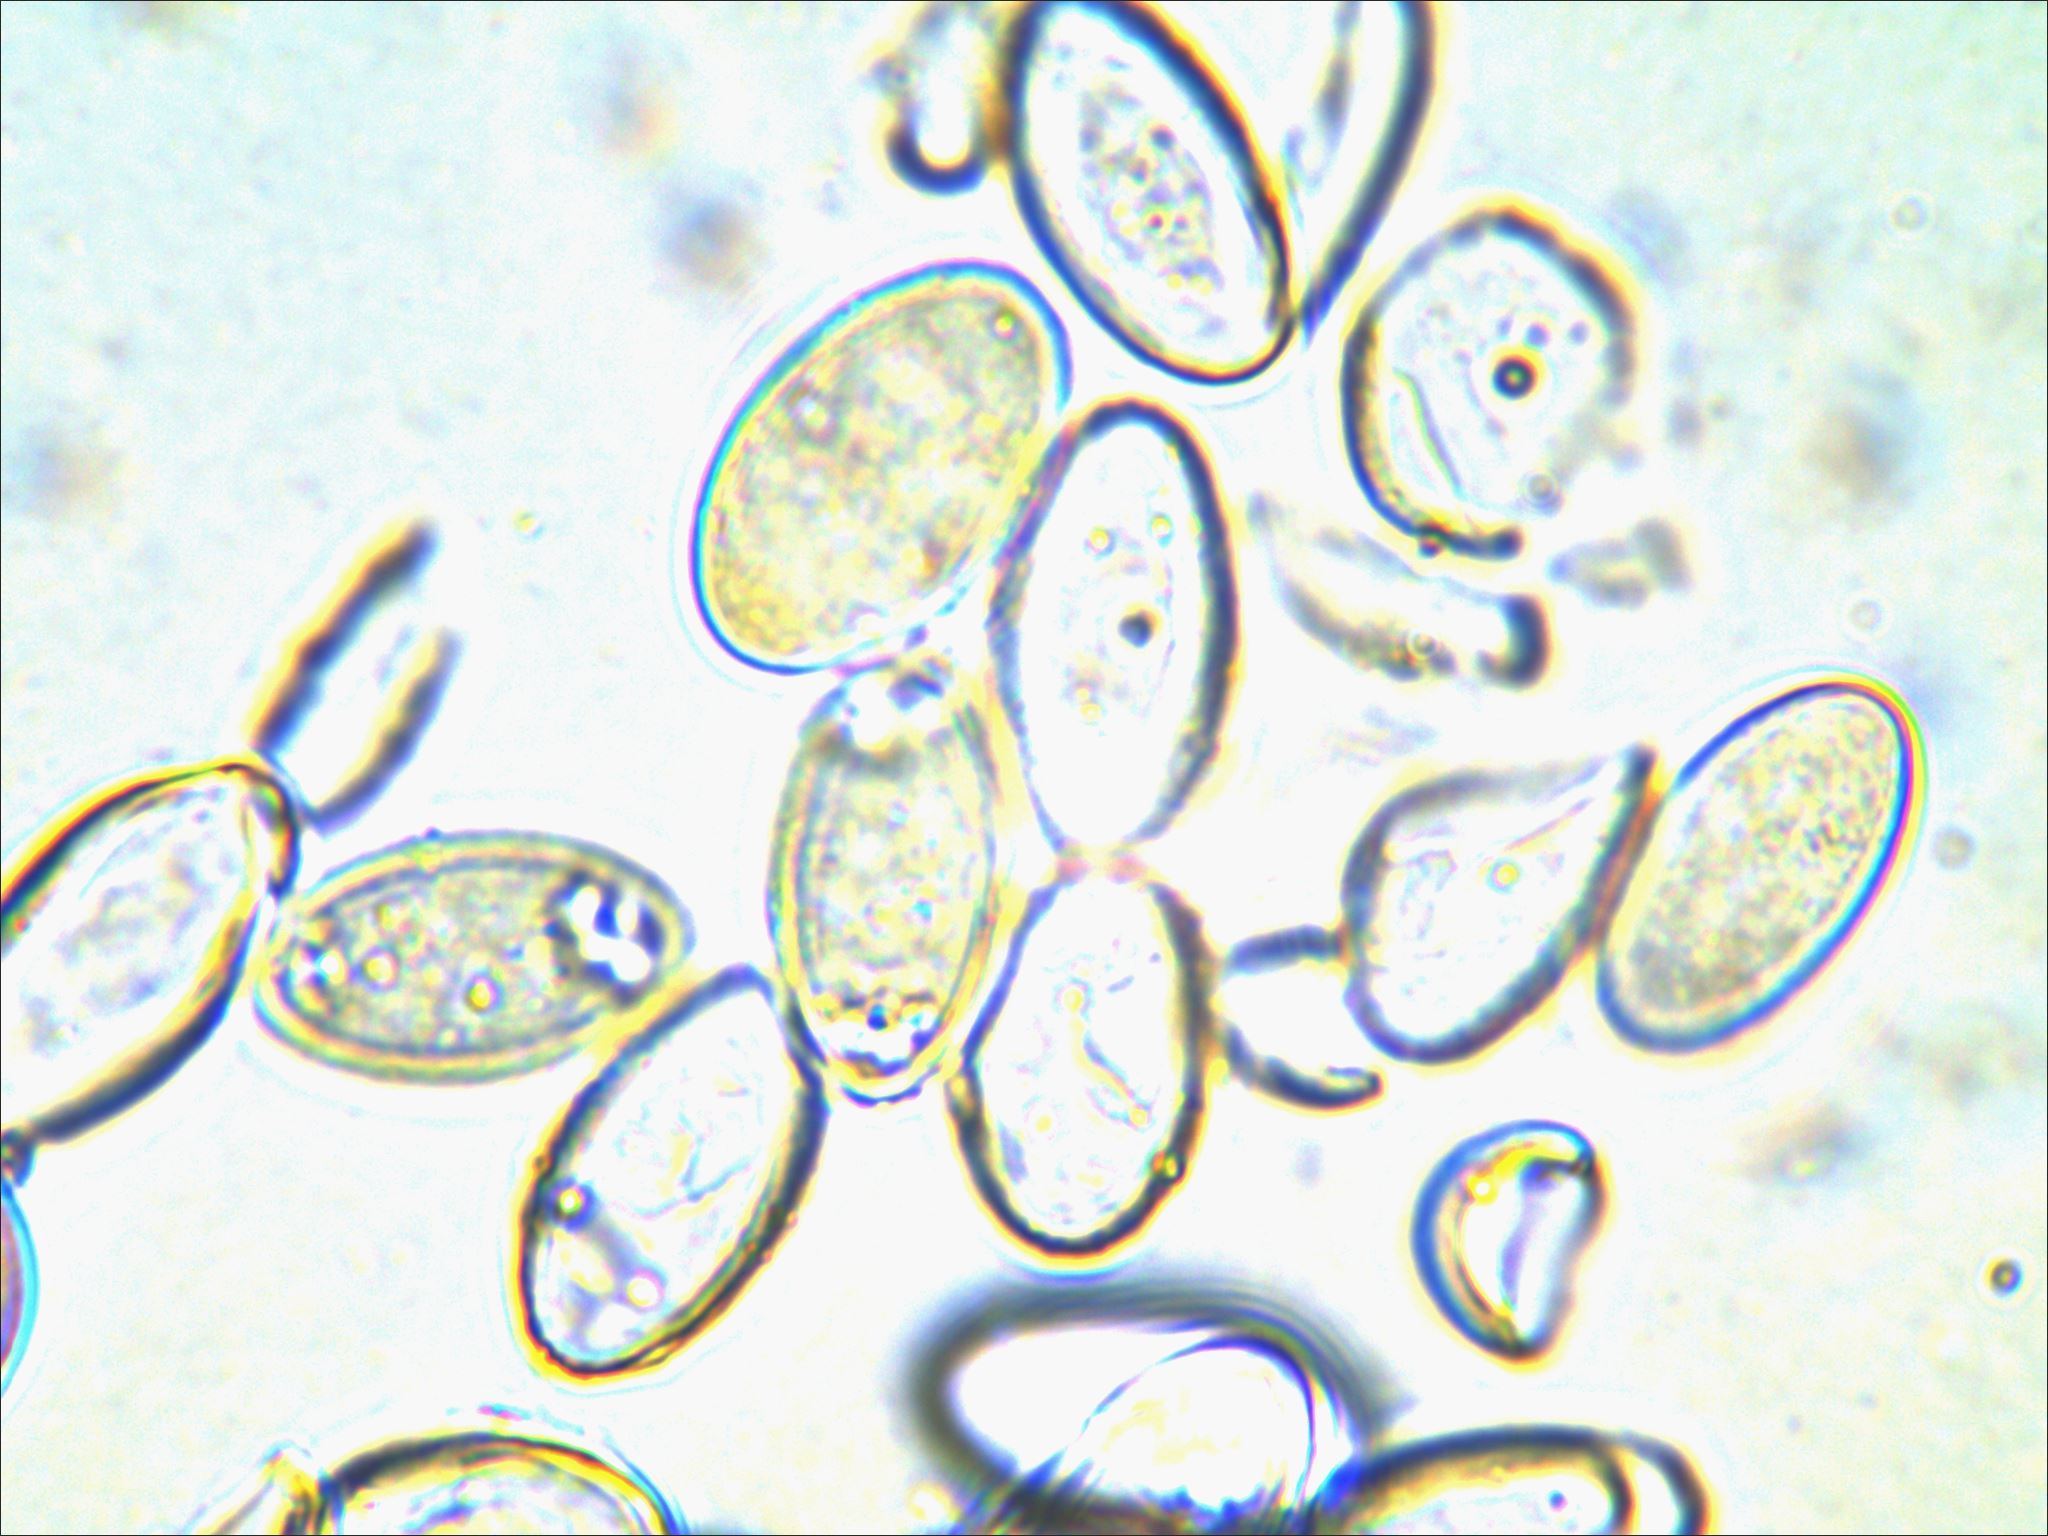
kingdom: Fungi
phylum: Ascomycota
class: Pezizomycetes
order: Pezizales
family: Morchellaceae
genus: Disciotis
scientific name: Disciotis venosa
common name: Bleach cup
